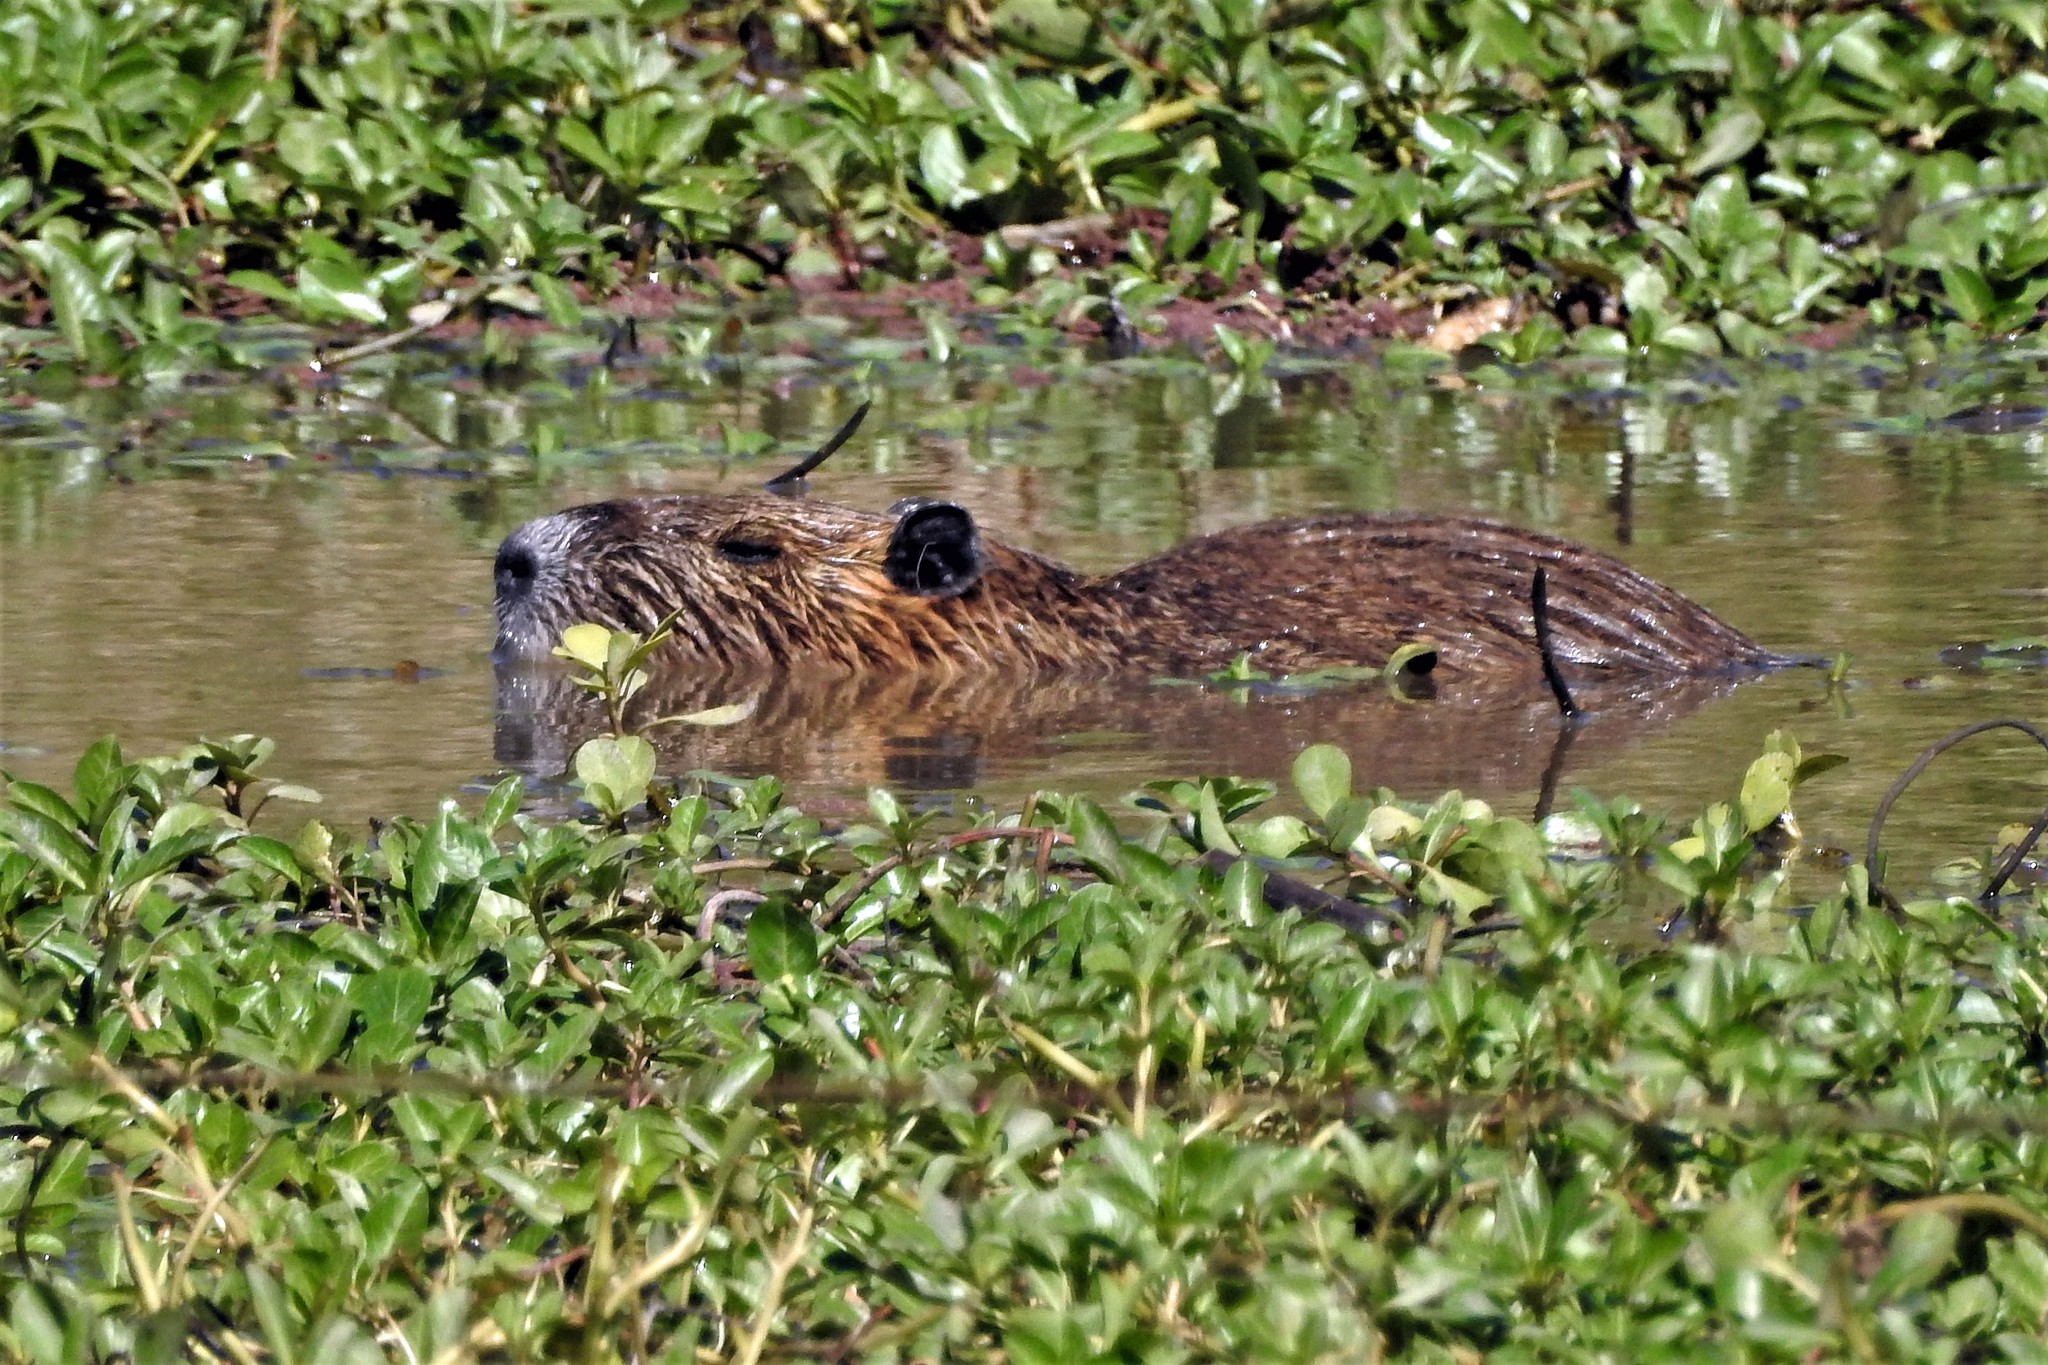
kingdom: Animalia
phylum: Chordata
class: Mammalia
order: Rodentia
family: Myocastoridae
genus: Myocastor
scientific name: Myocastor coypus
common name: Coypu
